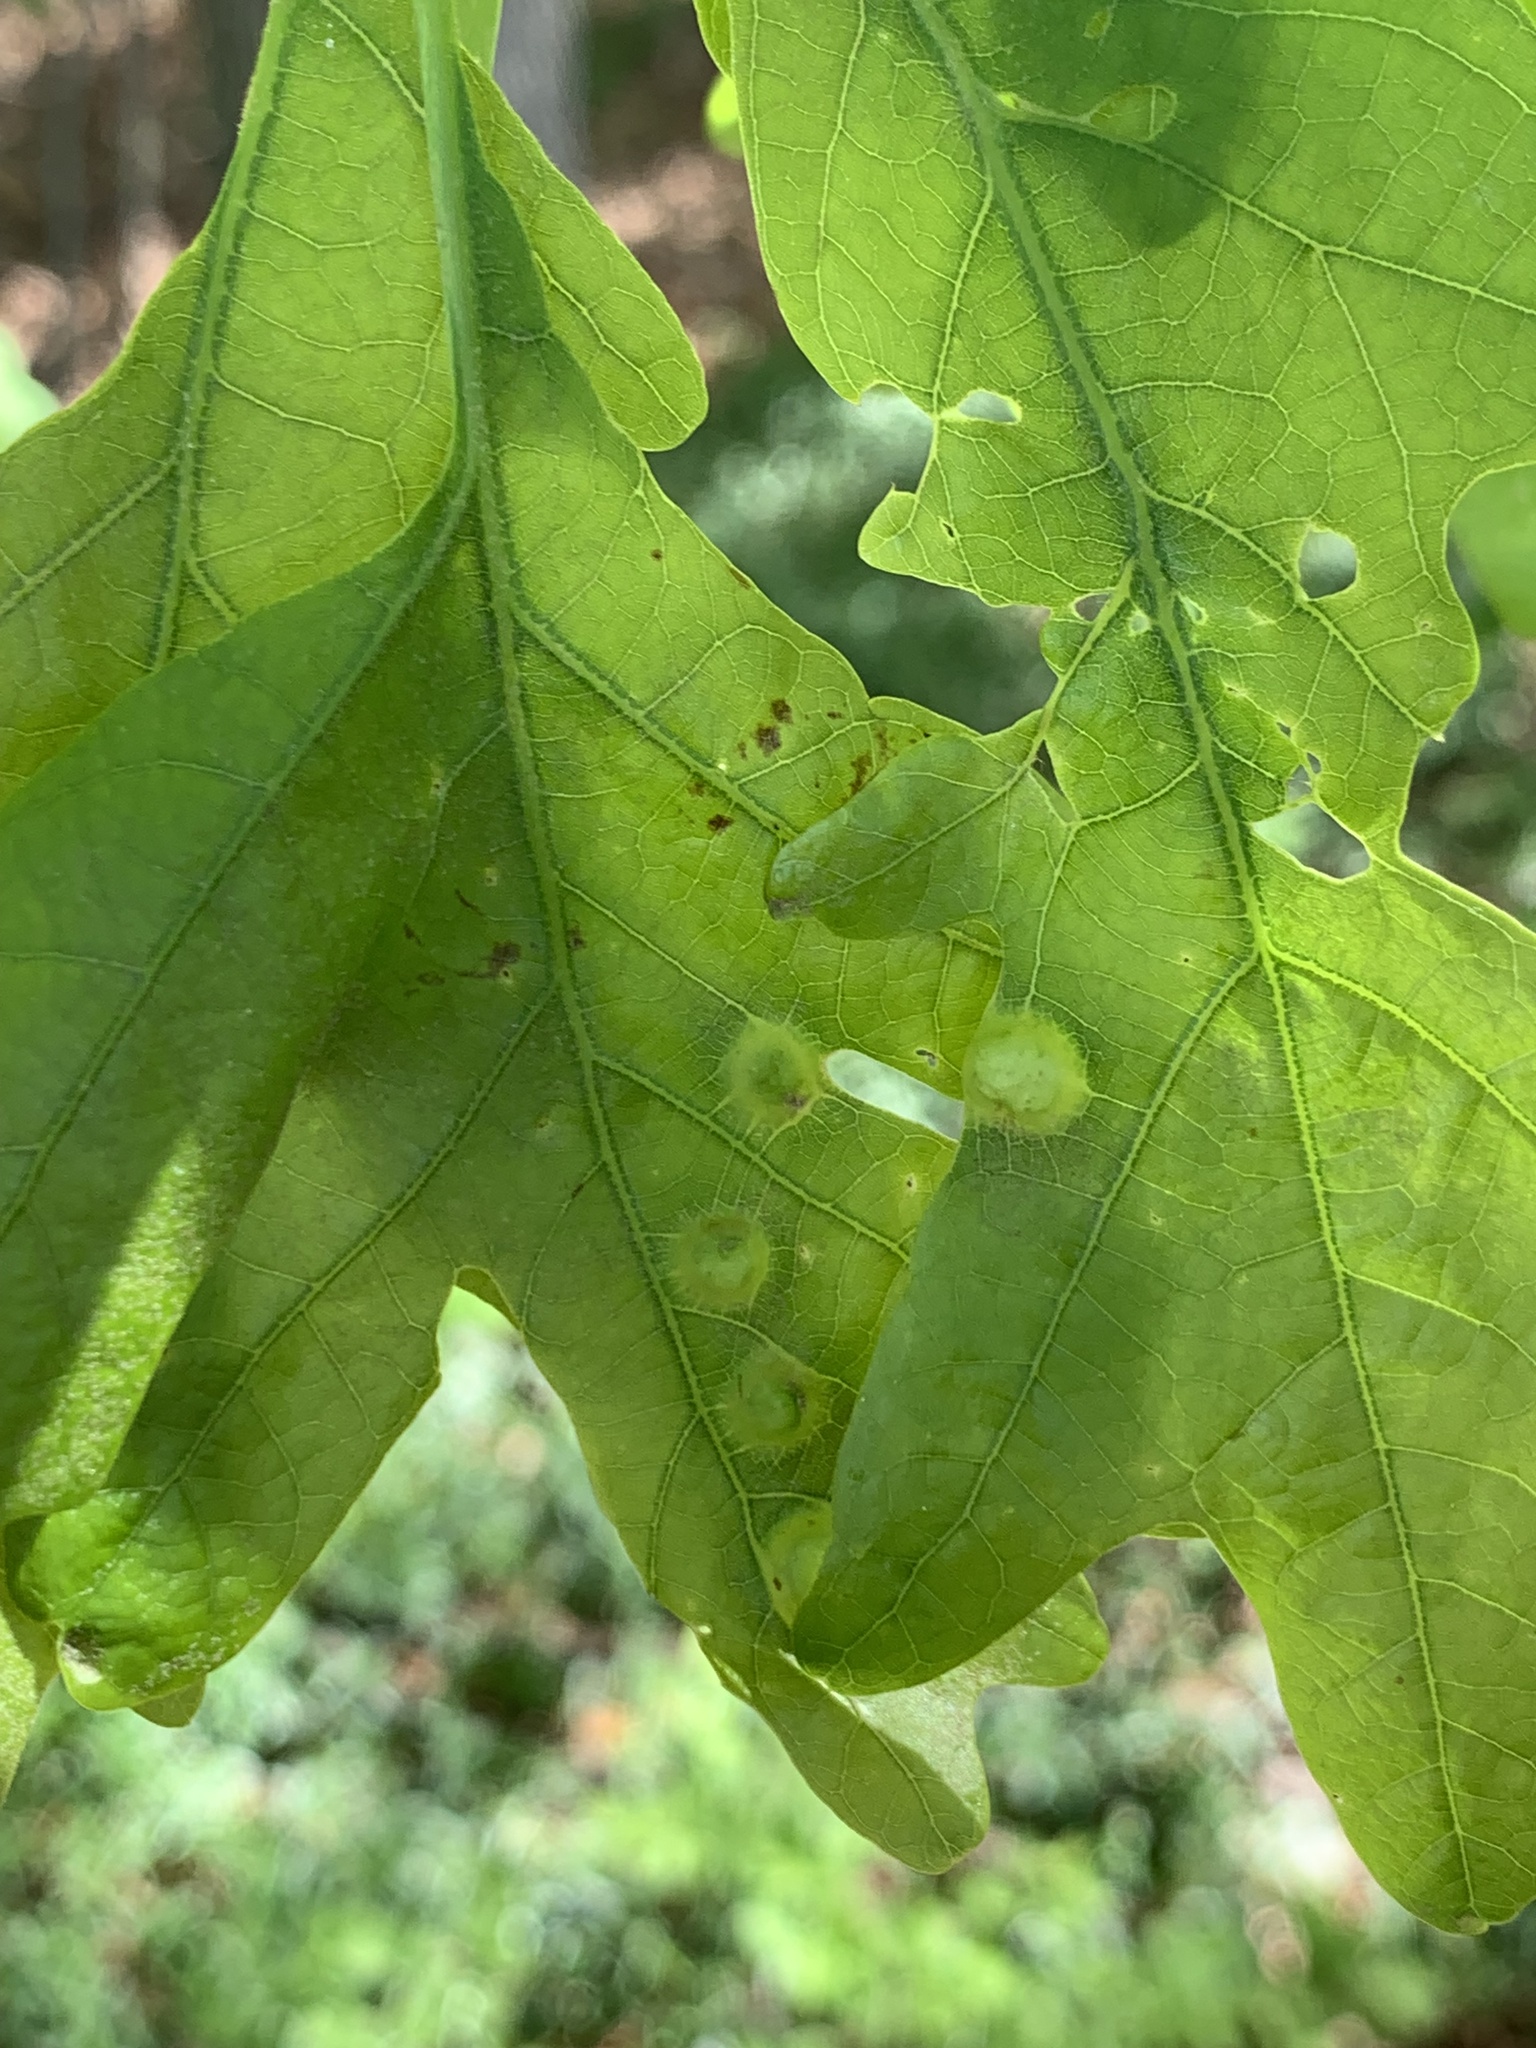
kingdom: Animalia
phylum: Arthropoda
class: Insecta
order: Hymenoptera
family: Cynipidae
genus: Callirhytis
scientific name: Callirhytis
